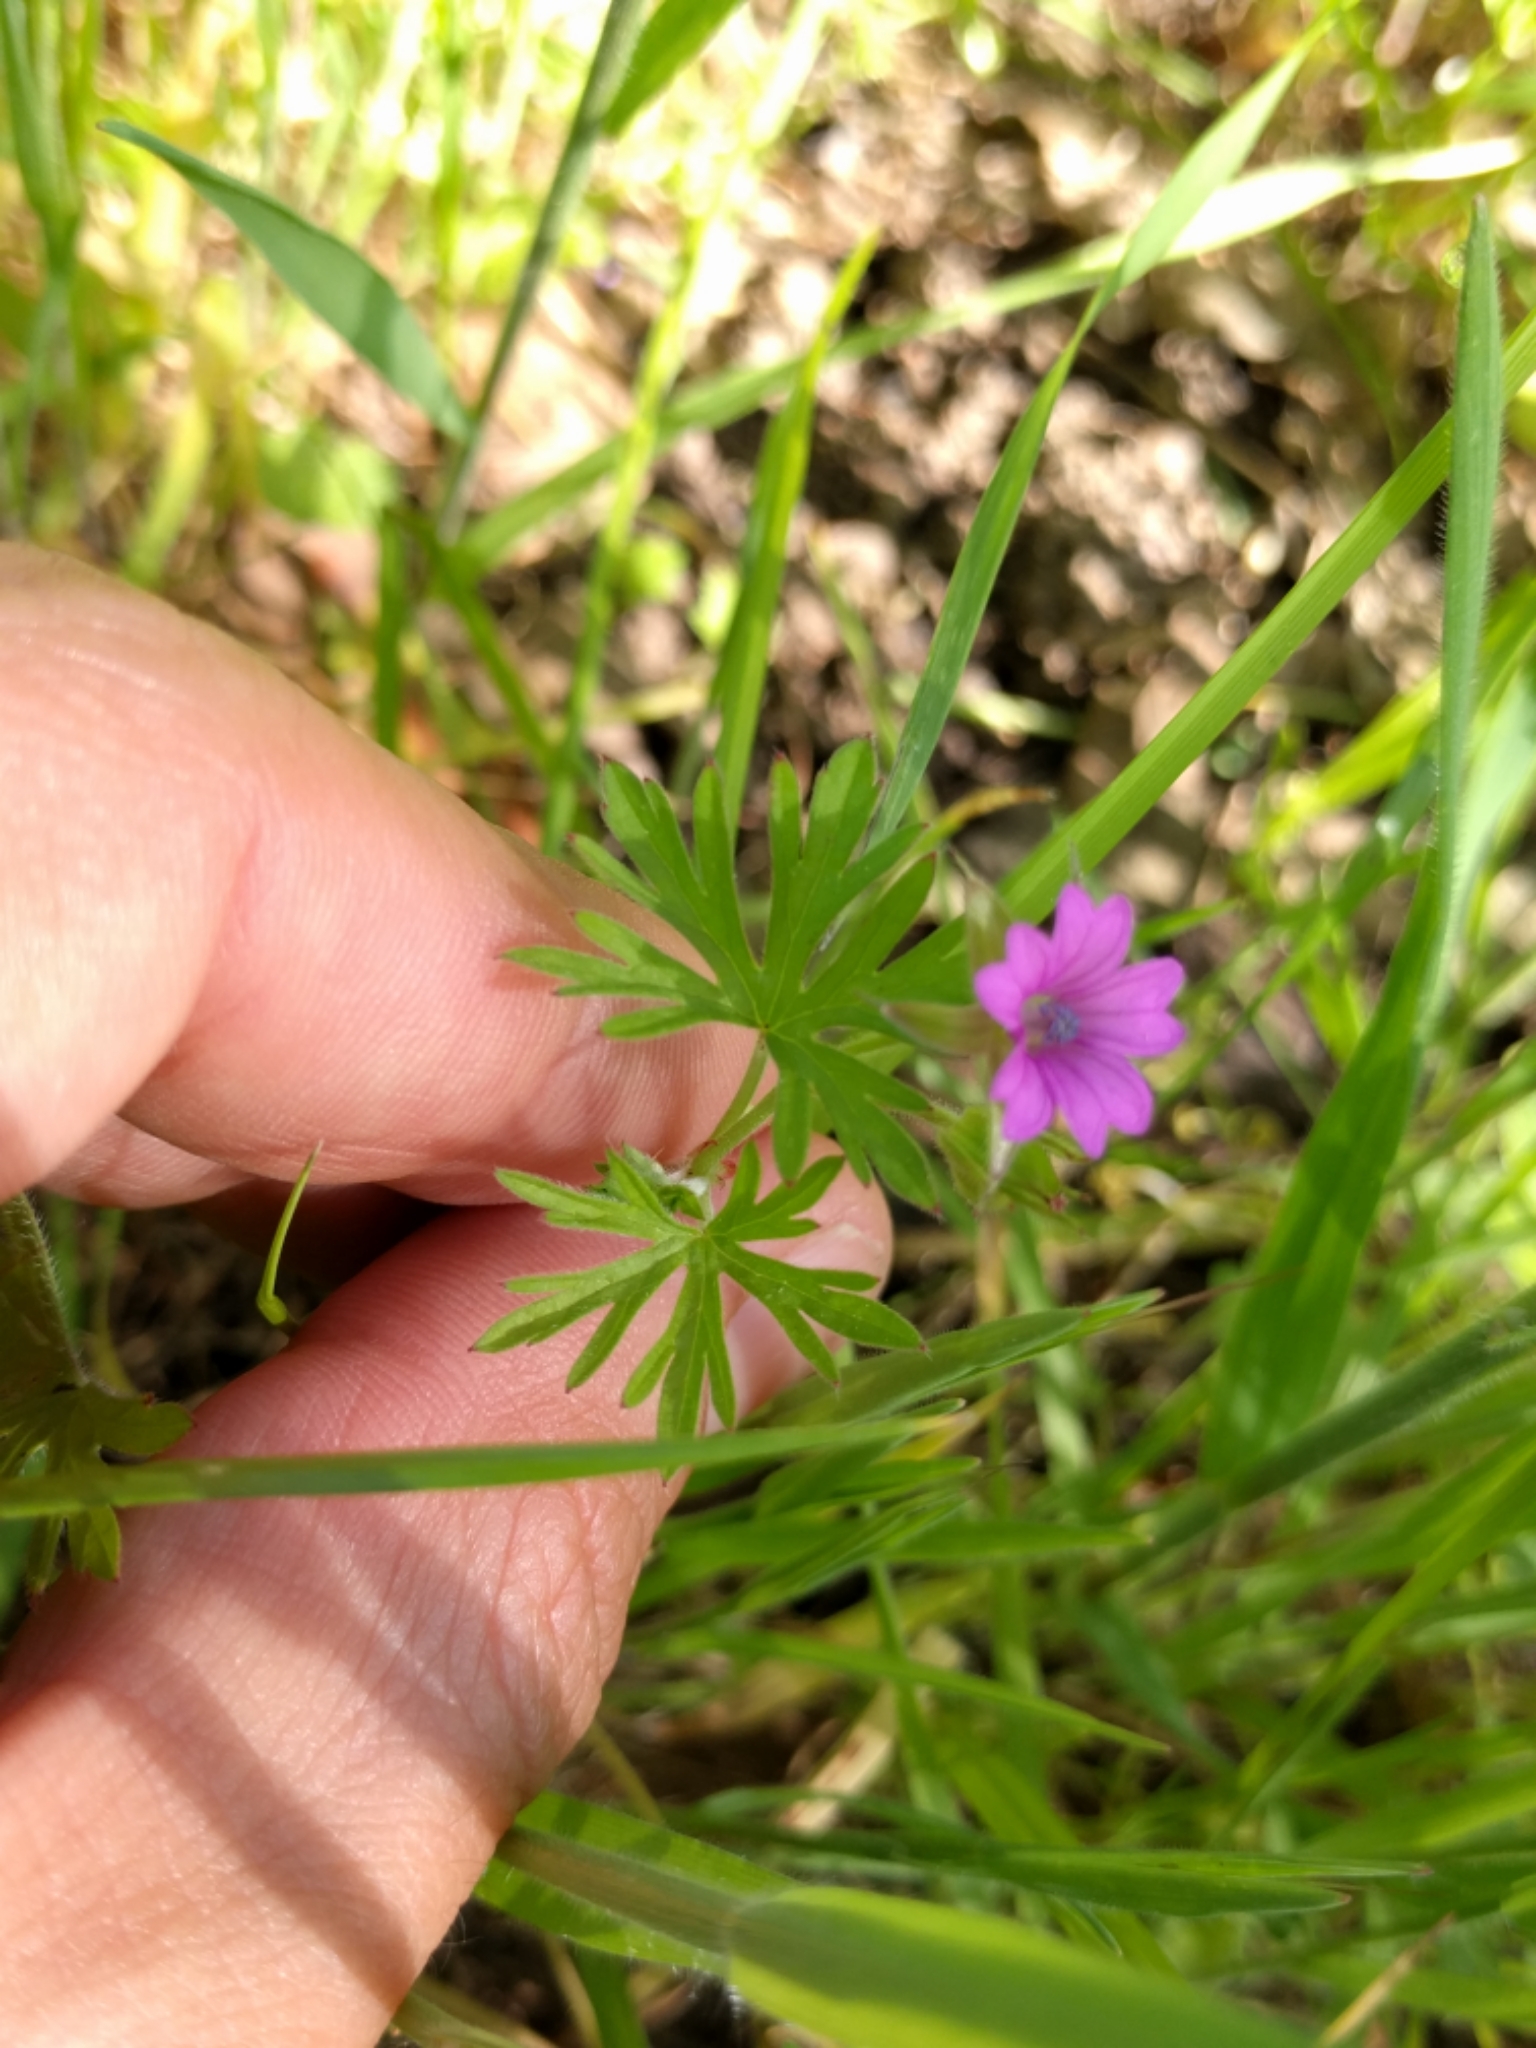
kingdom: Plantae
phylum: Tracheophyta
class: Magnoliopsida
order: Geraniales
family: Geraniaceae
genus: Geranium
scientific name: Geranium dissectum
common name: Cut-leaved crane's-bill
